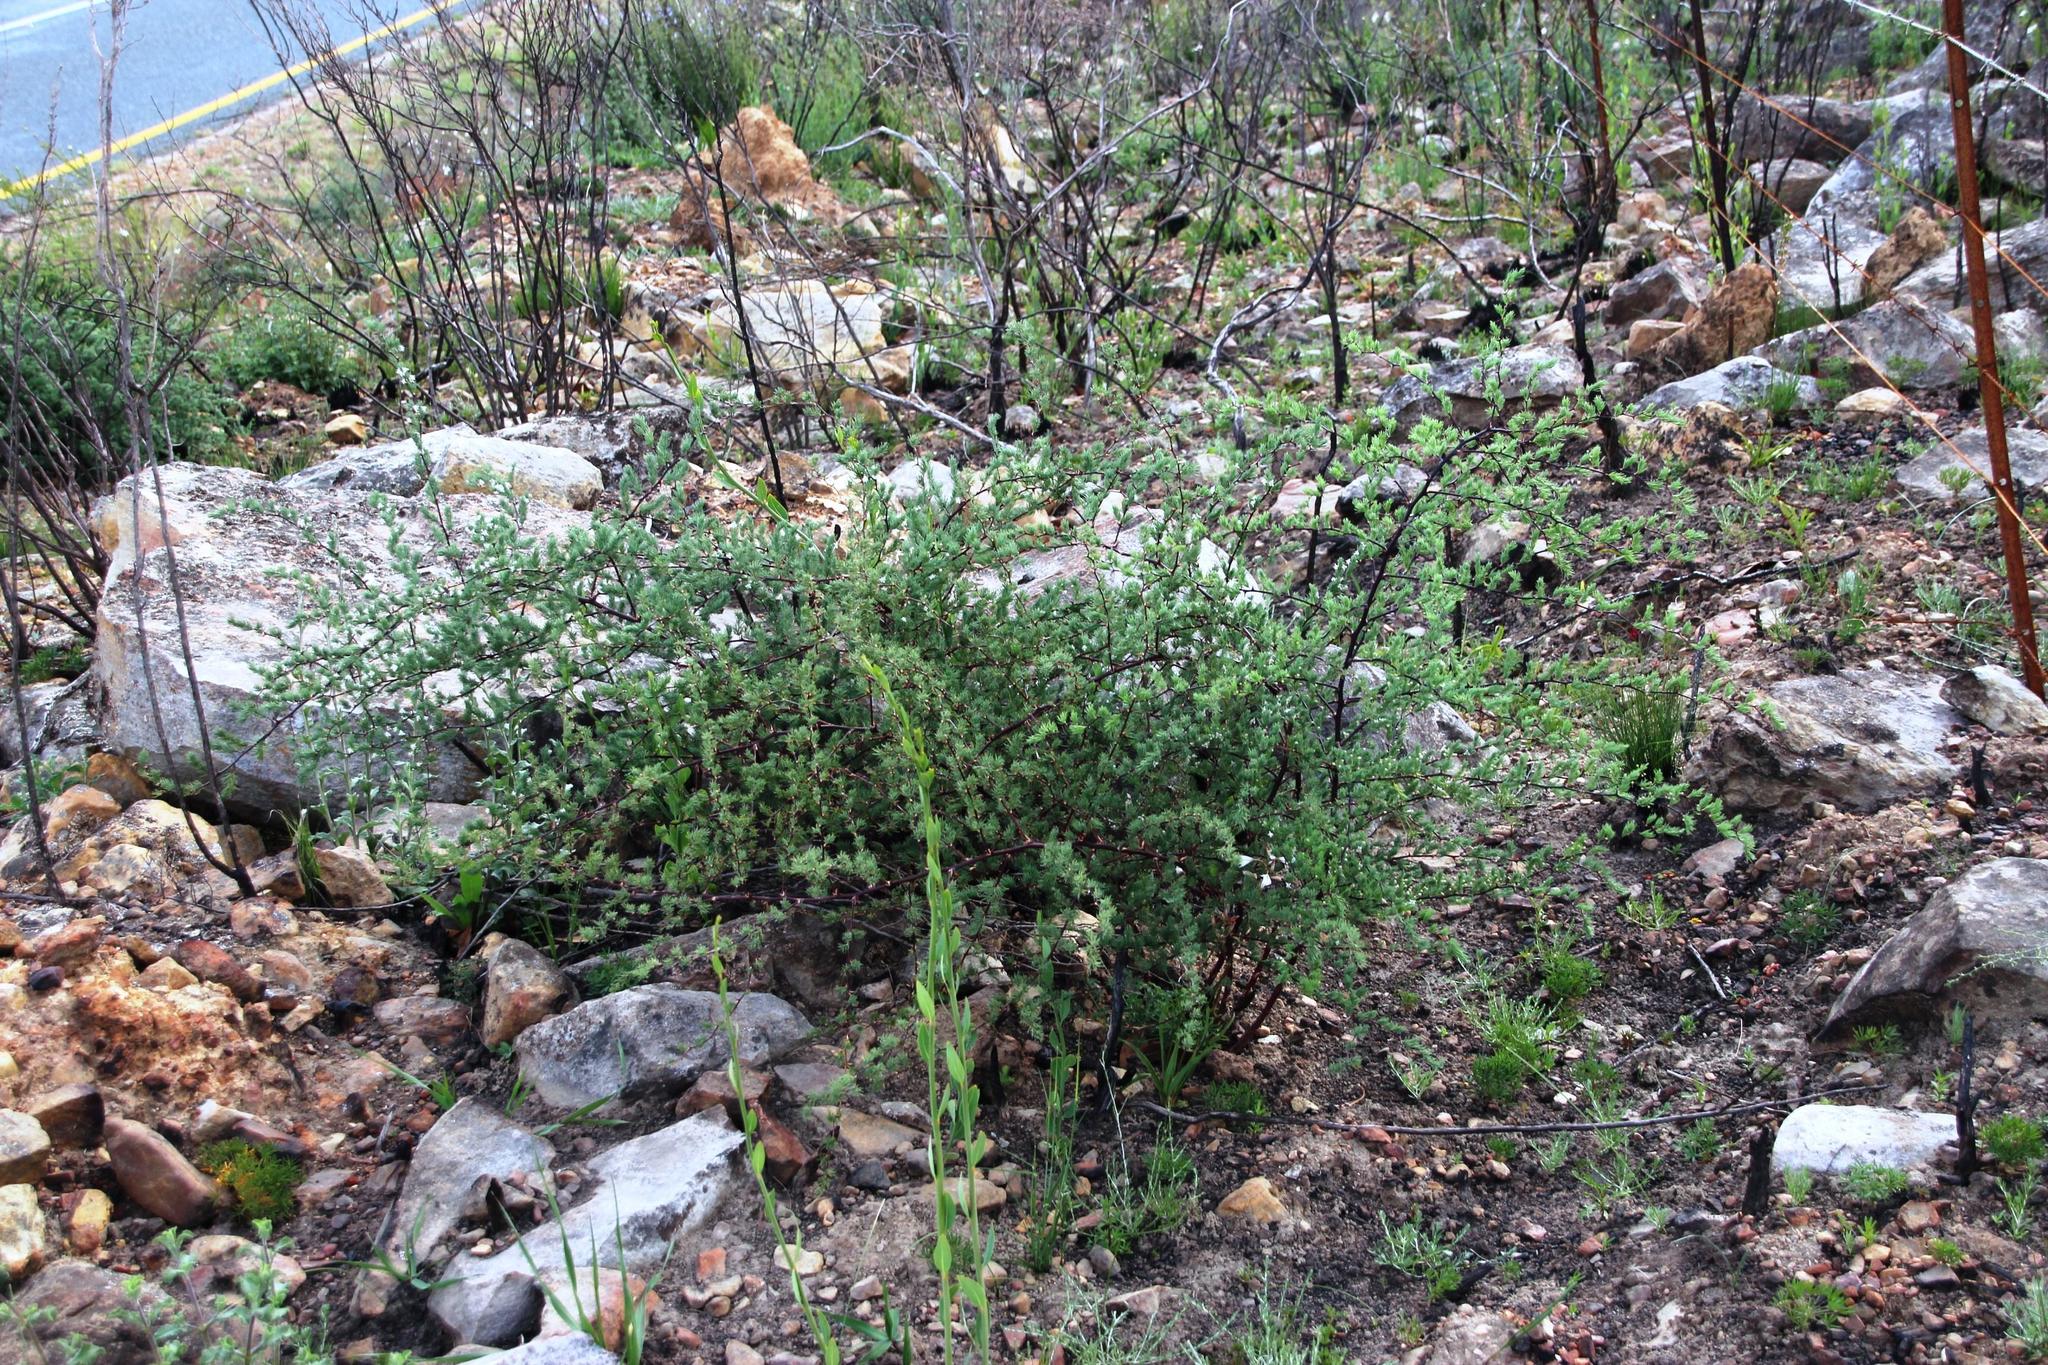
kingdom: Plantae
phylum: Tracheophyta
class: Liliopsida
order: Asparagales
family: Asparagaceae
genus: Asparagus
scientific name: Asparagus rubicundus
